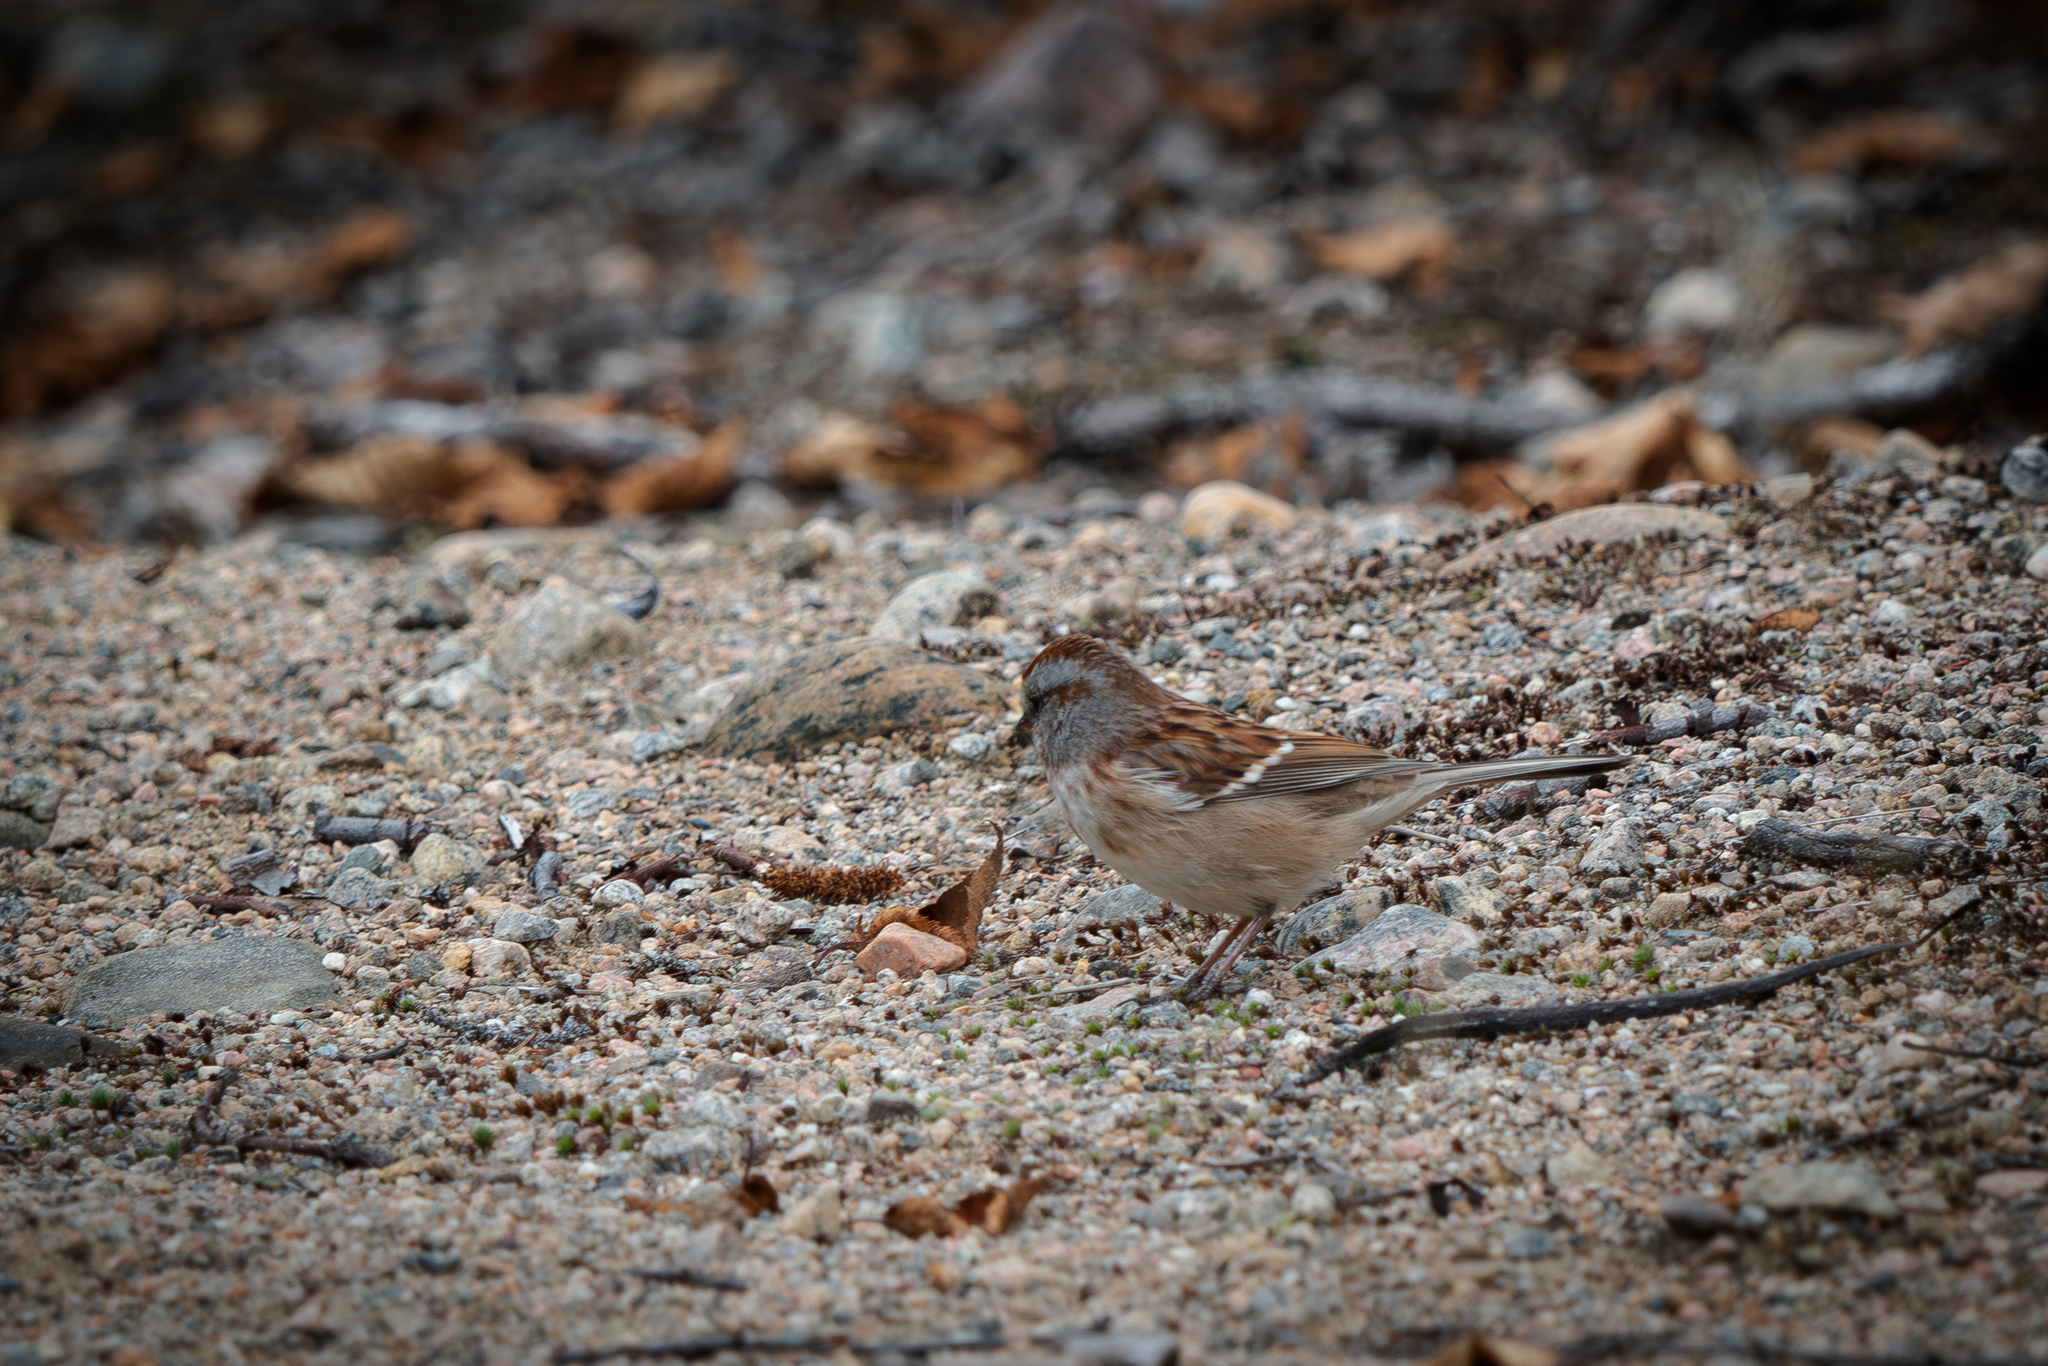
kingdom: Animalia
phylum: Chordata
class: Aves
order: Passeriformes
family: Passerellidae
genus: Spizelloides
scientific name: Spizelloides arborea
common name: American tree sparrow
